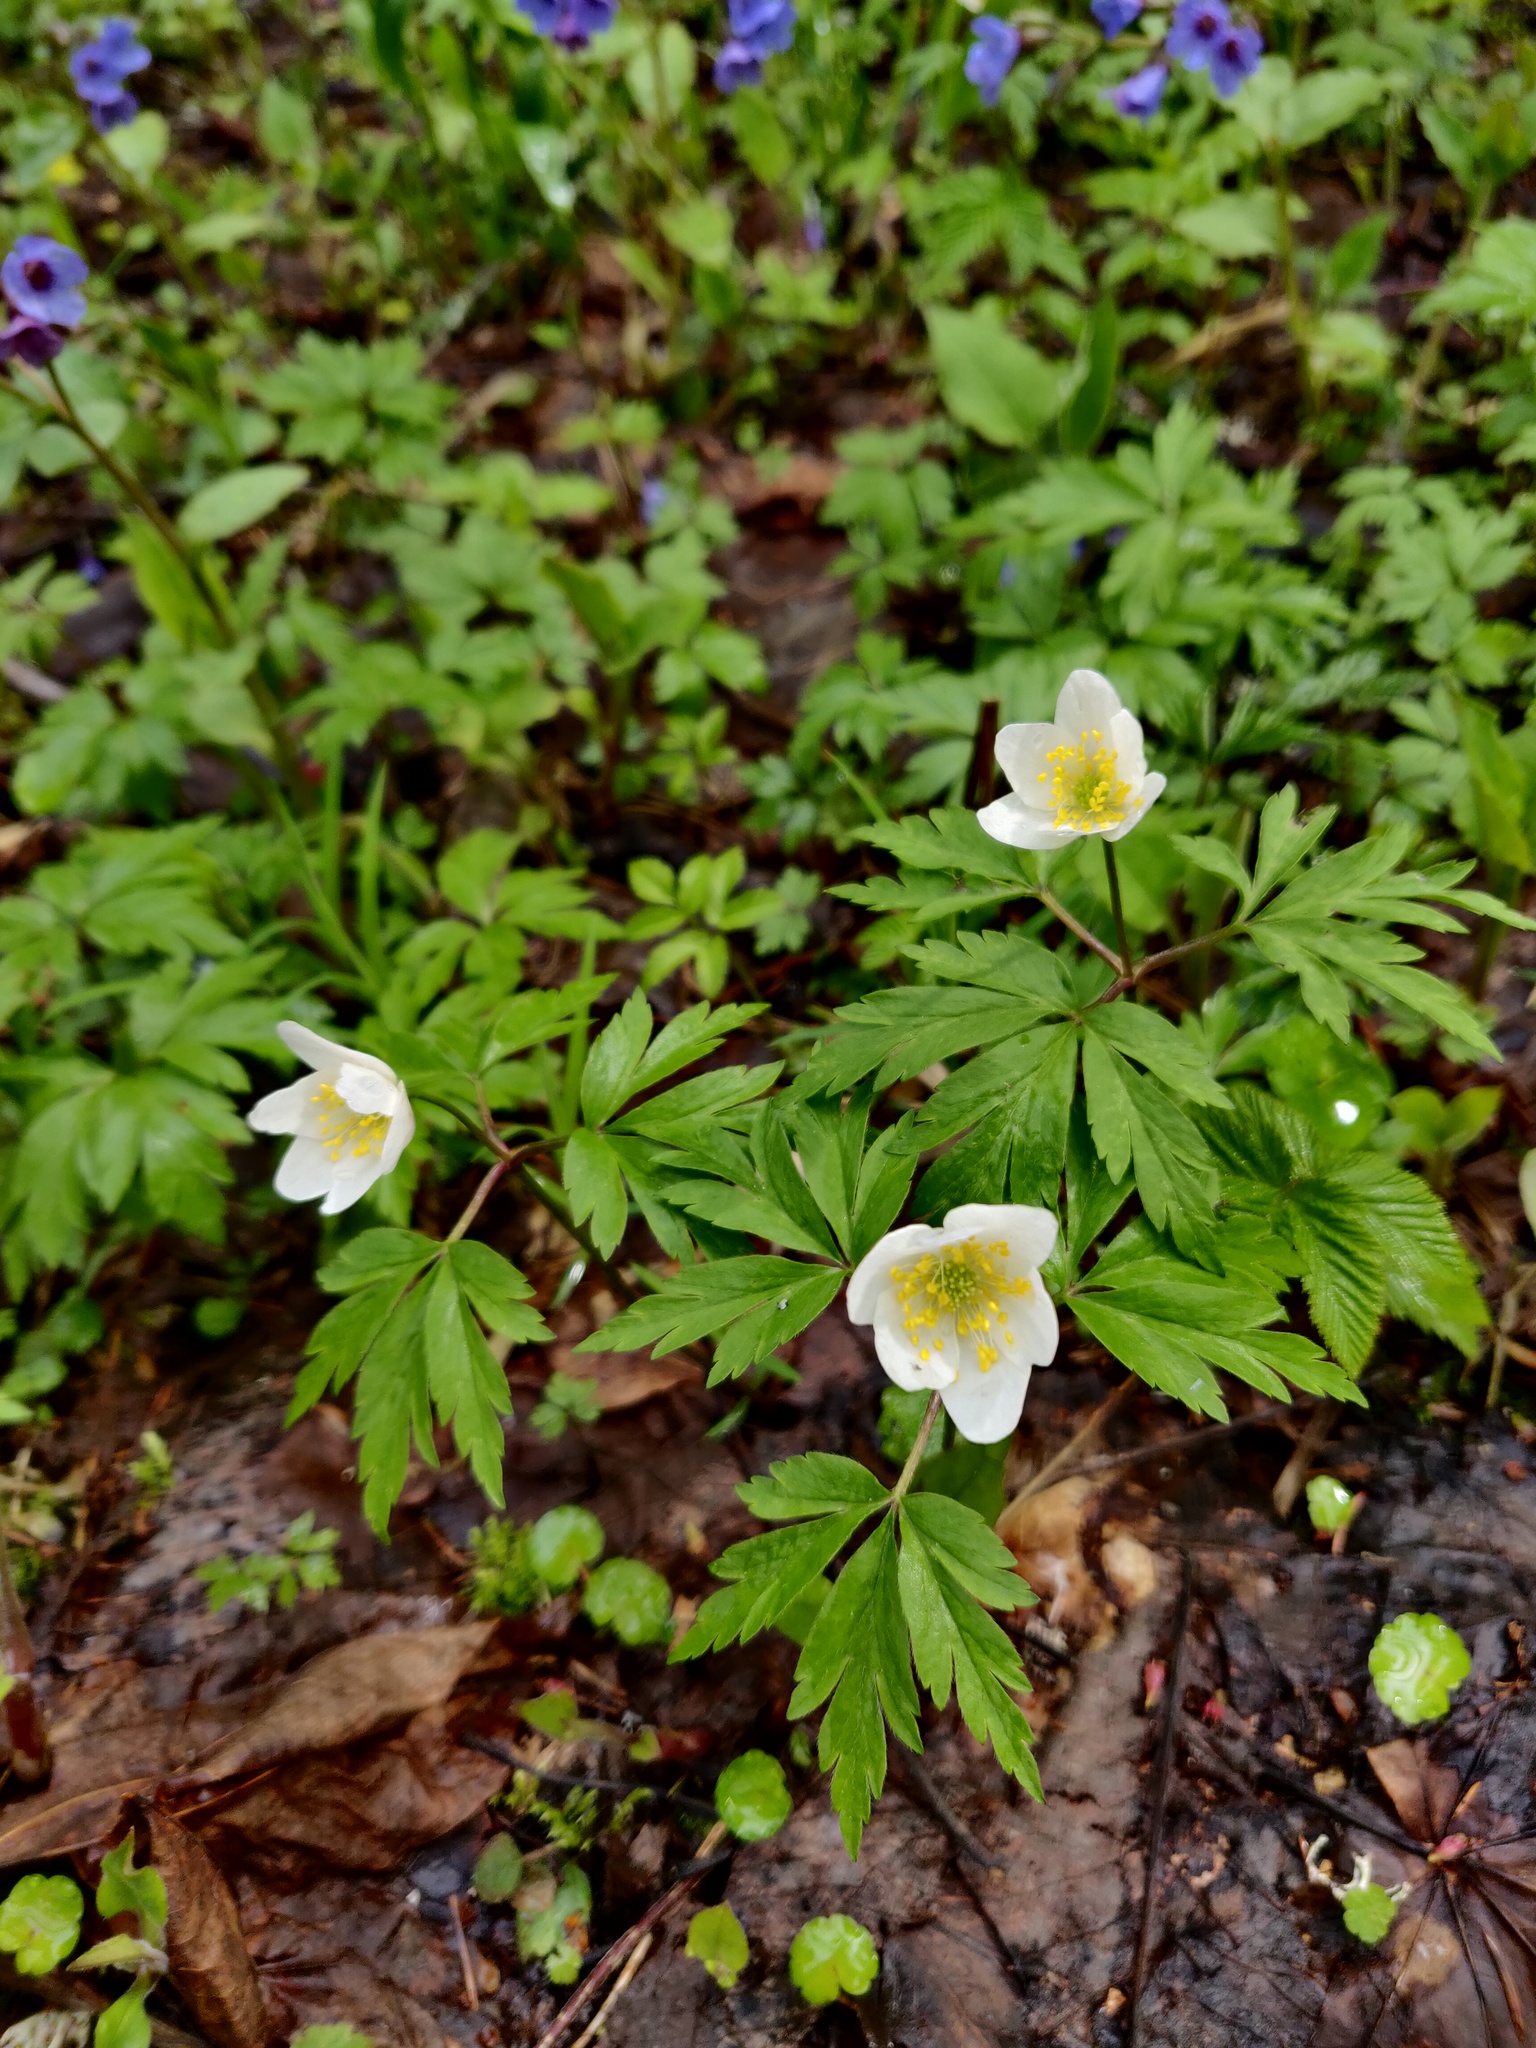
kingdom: Plantae
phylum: Tracheophyta
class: Magnoliopsida
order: Ranunculales
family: Ranunculaceae
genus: Anemone
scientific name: Anemone nemorosa
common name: Wood anemone
